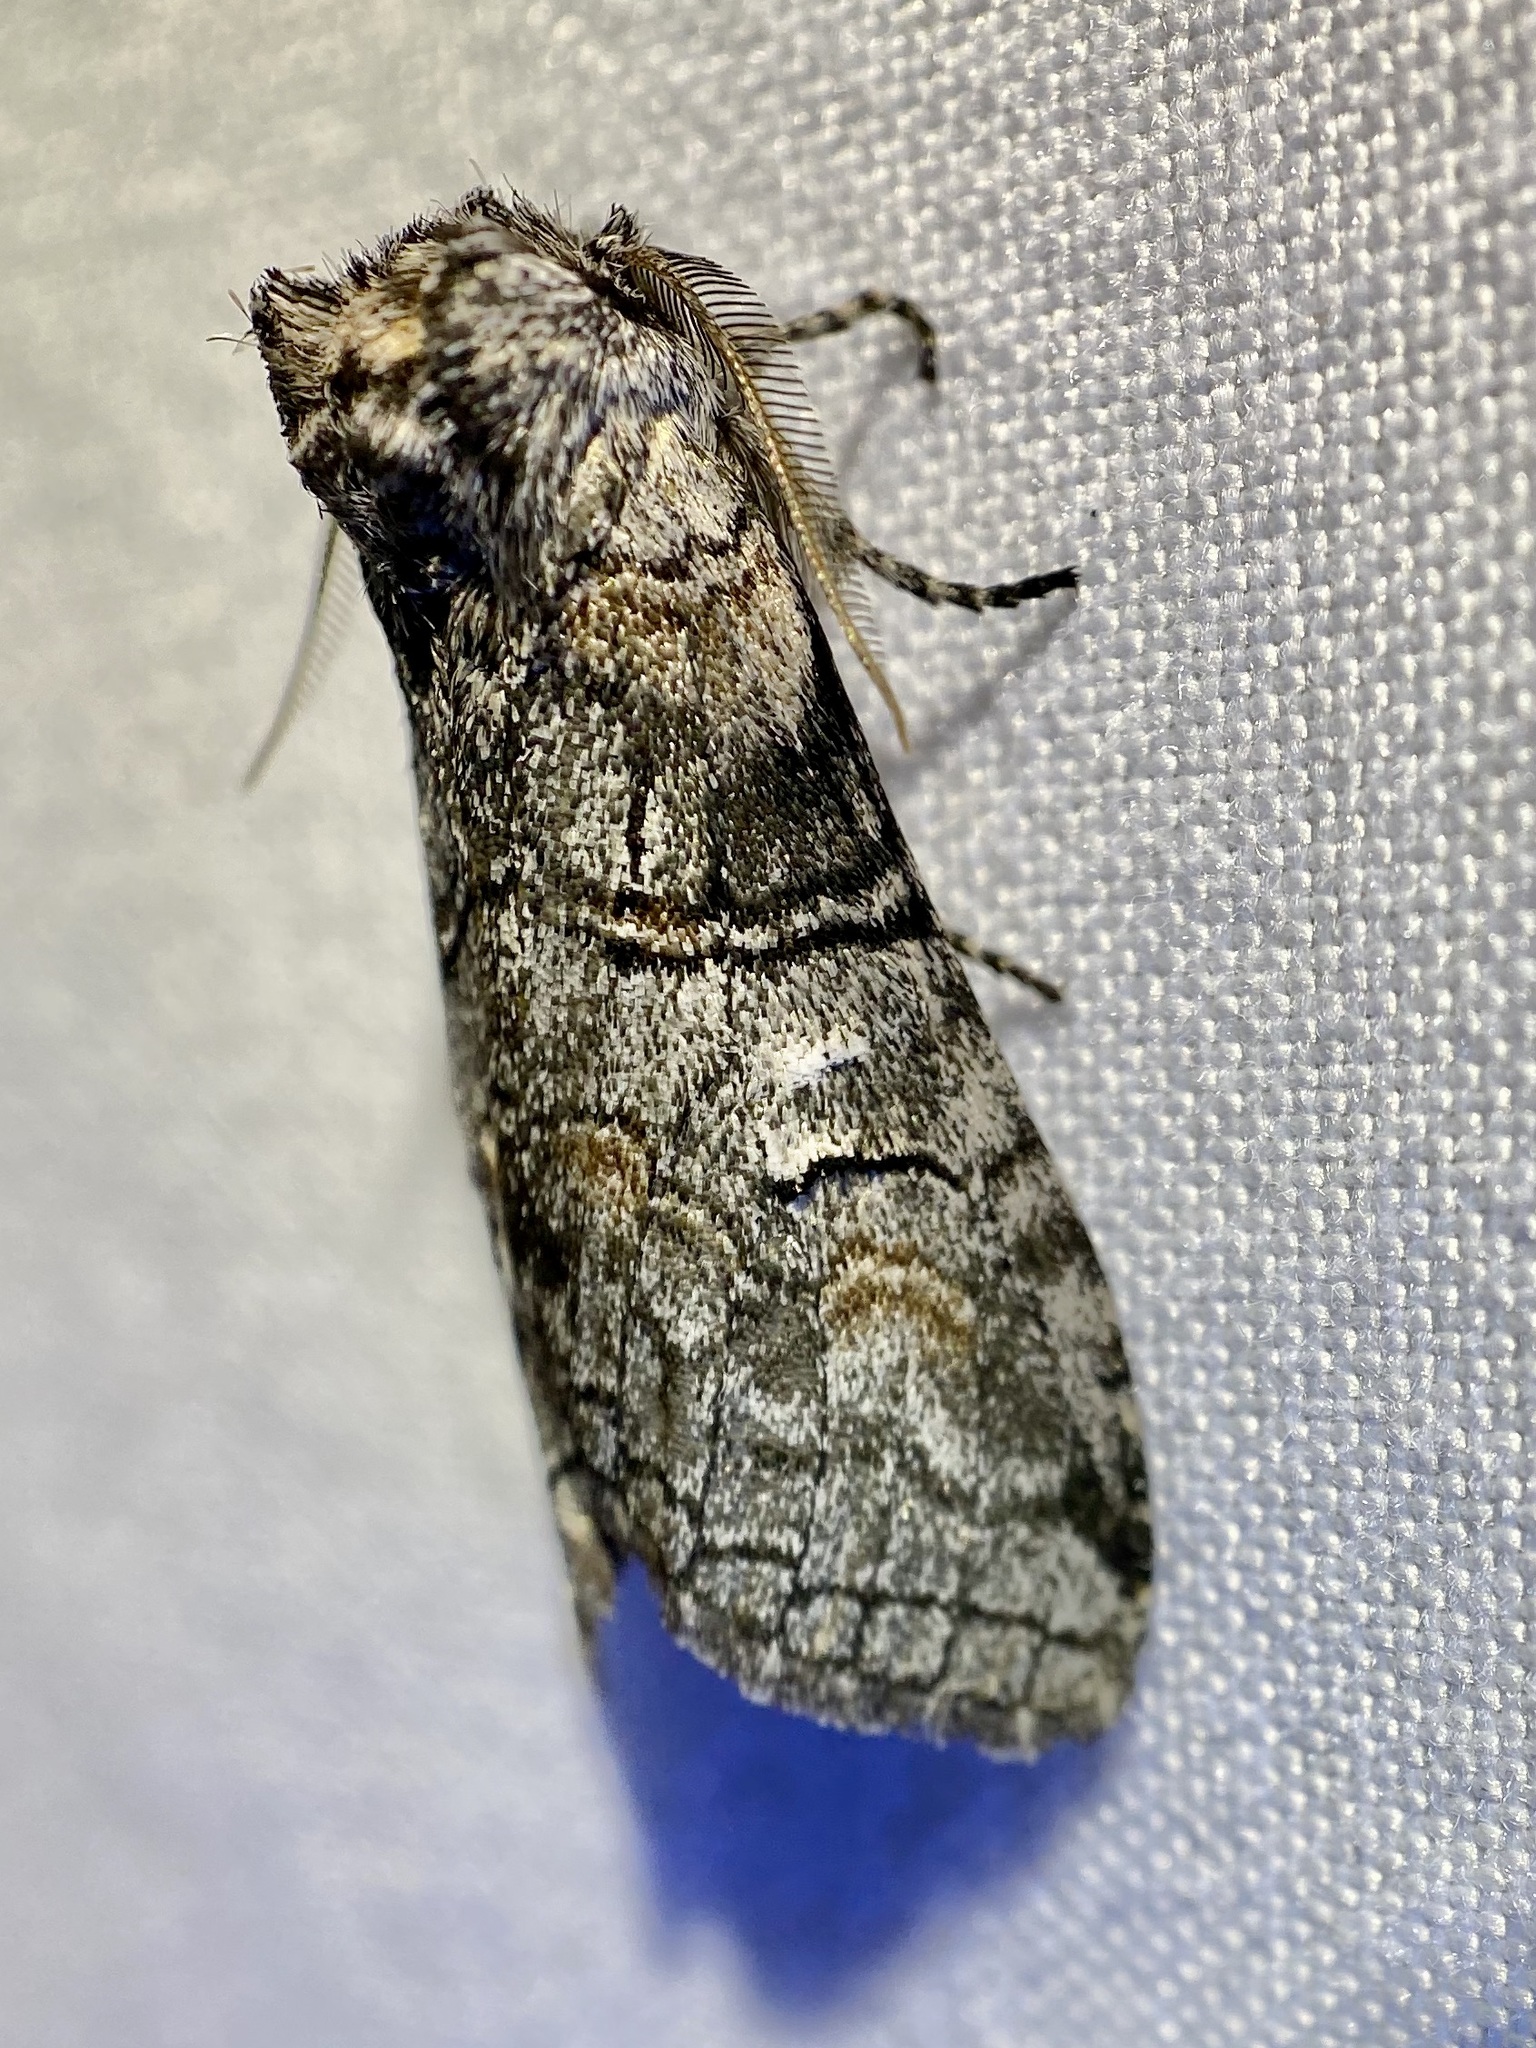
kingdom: Animalia
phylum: Arthropoda
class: Insecta
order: Lepidoptera
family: Notodontidae
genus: Afilia
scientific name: Afilia oslari
